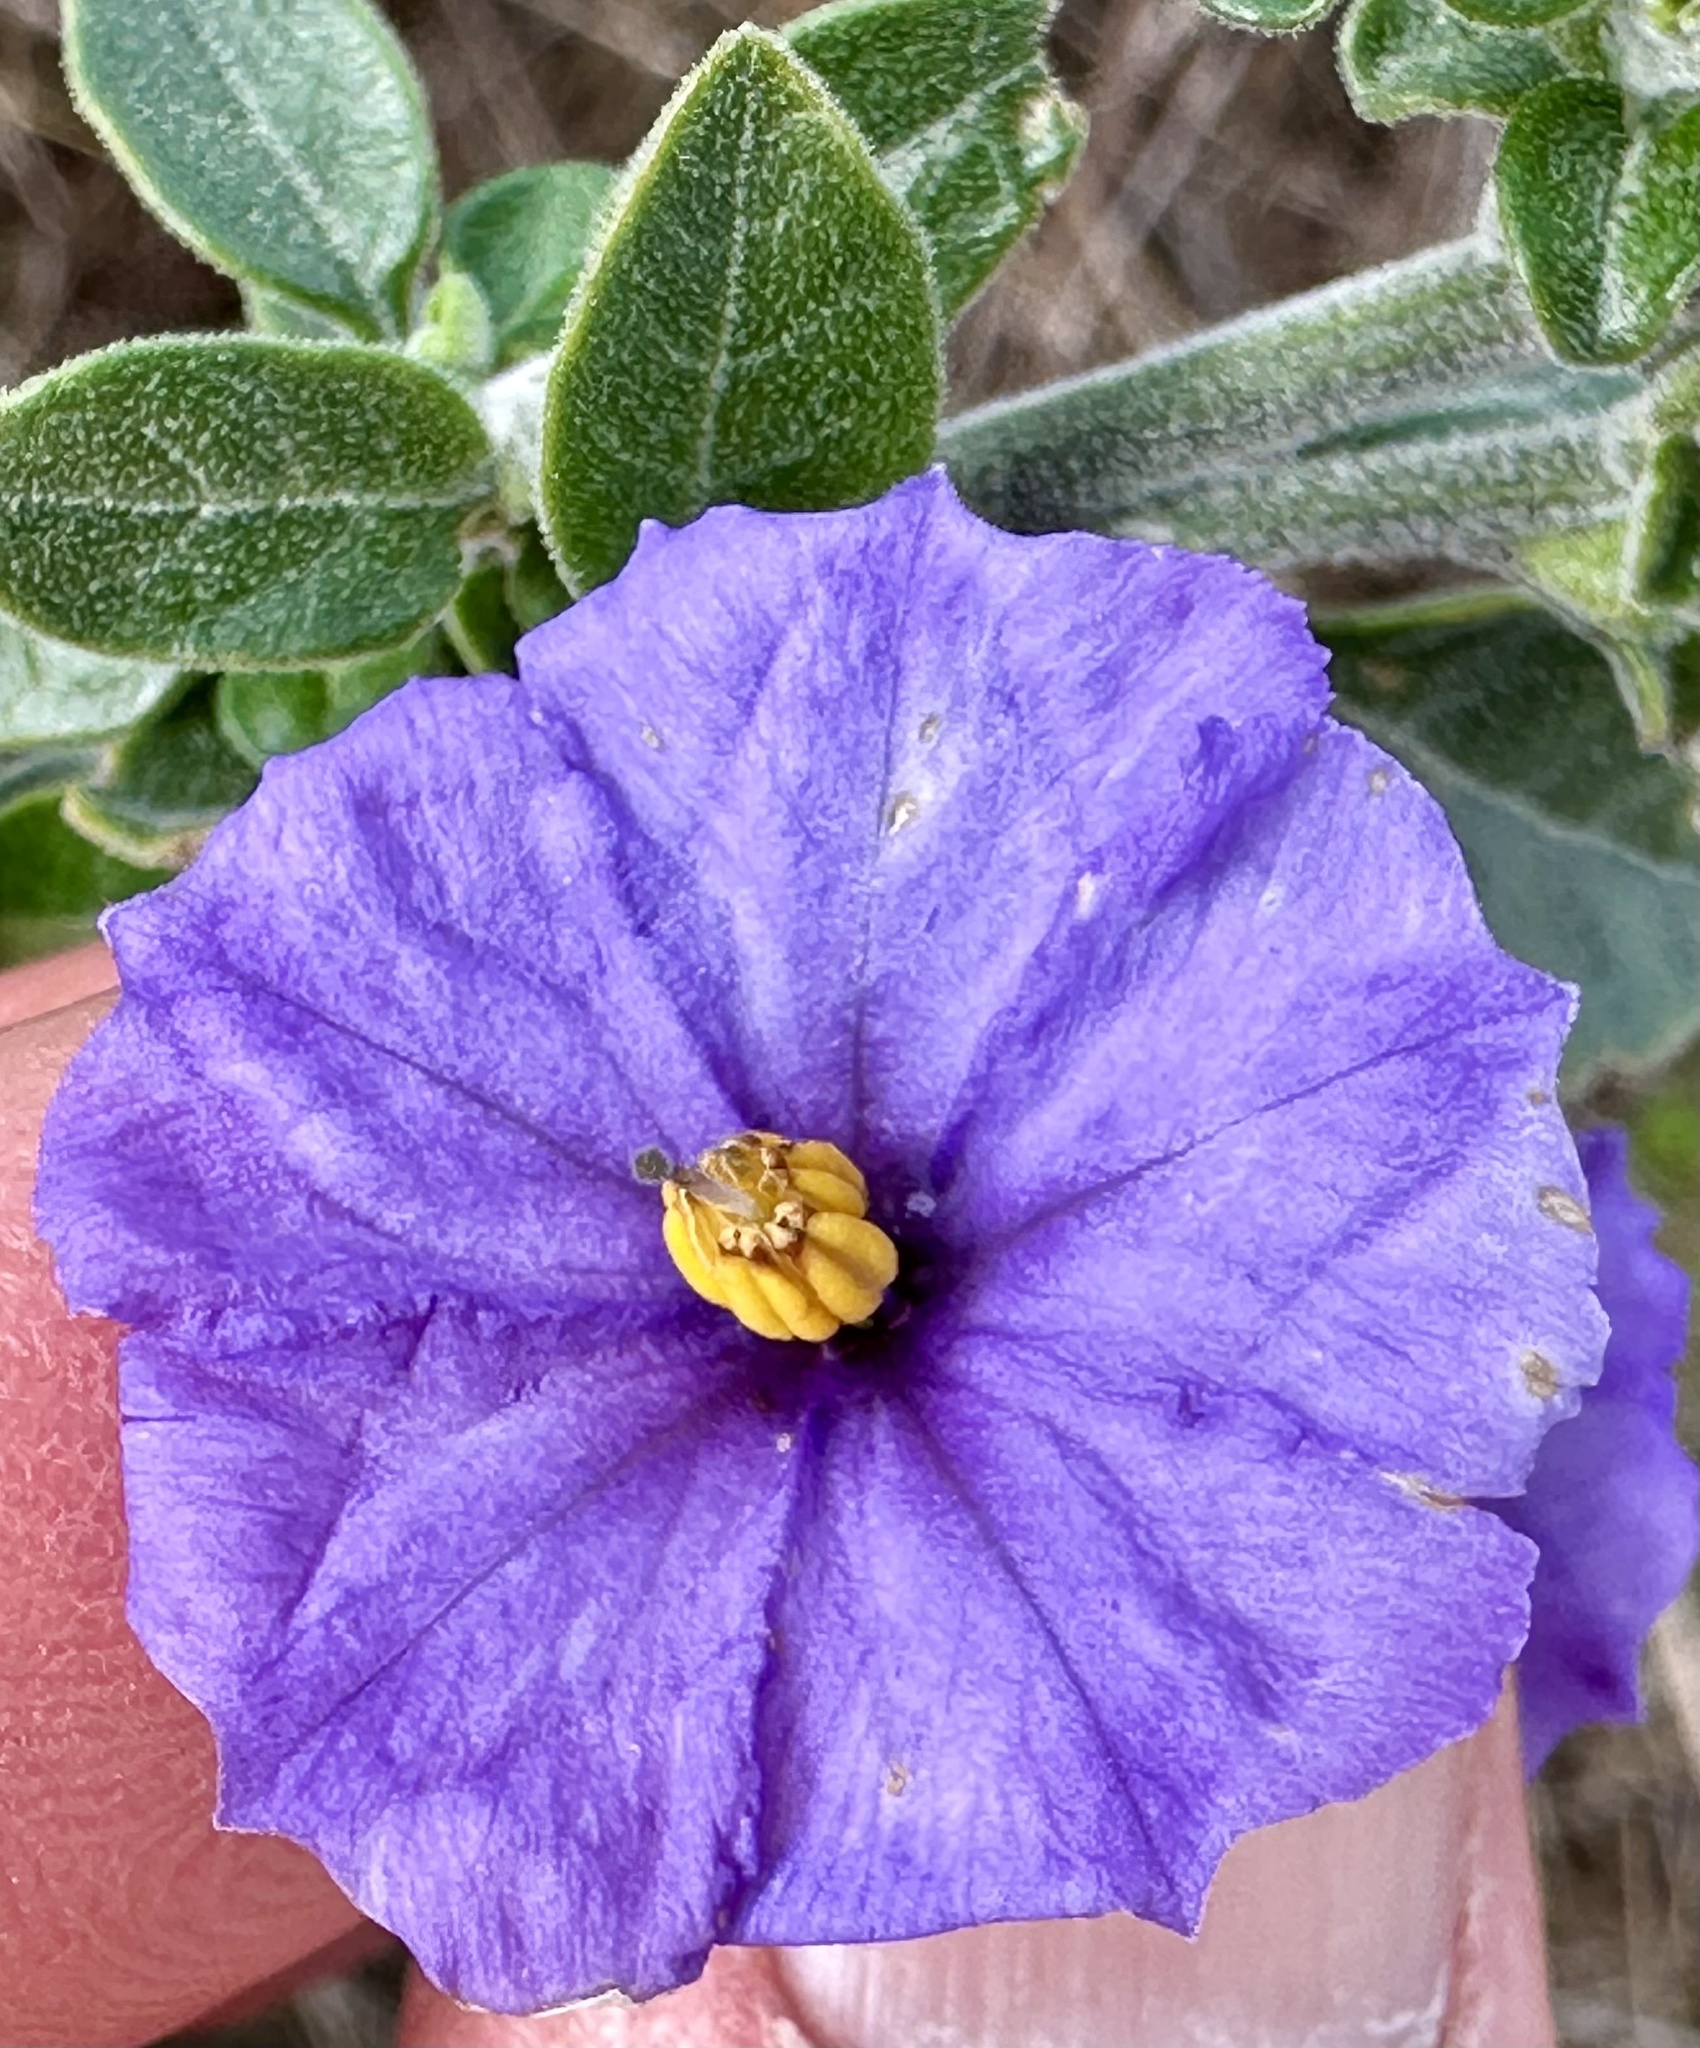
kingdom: Plantae
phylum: Tracheophyta
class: Magnoliopsida
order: Solanales
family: Solanaceae
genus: Solanum
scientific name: Solanum umbelliferum
